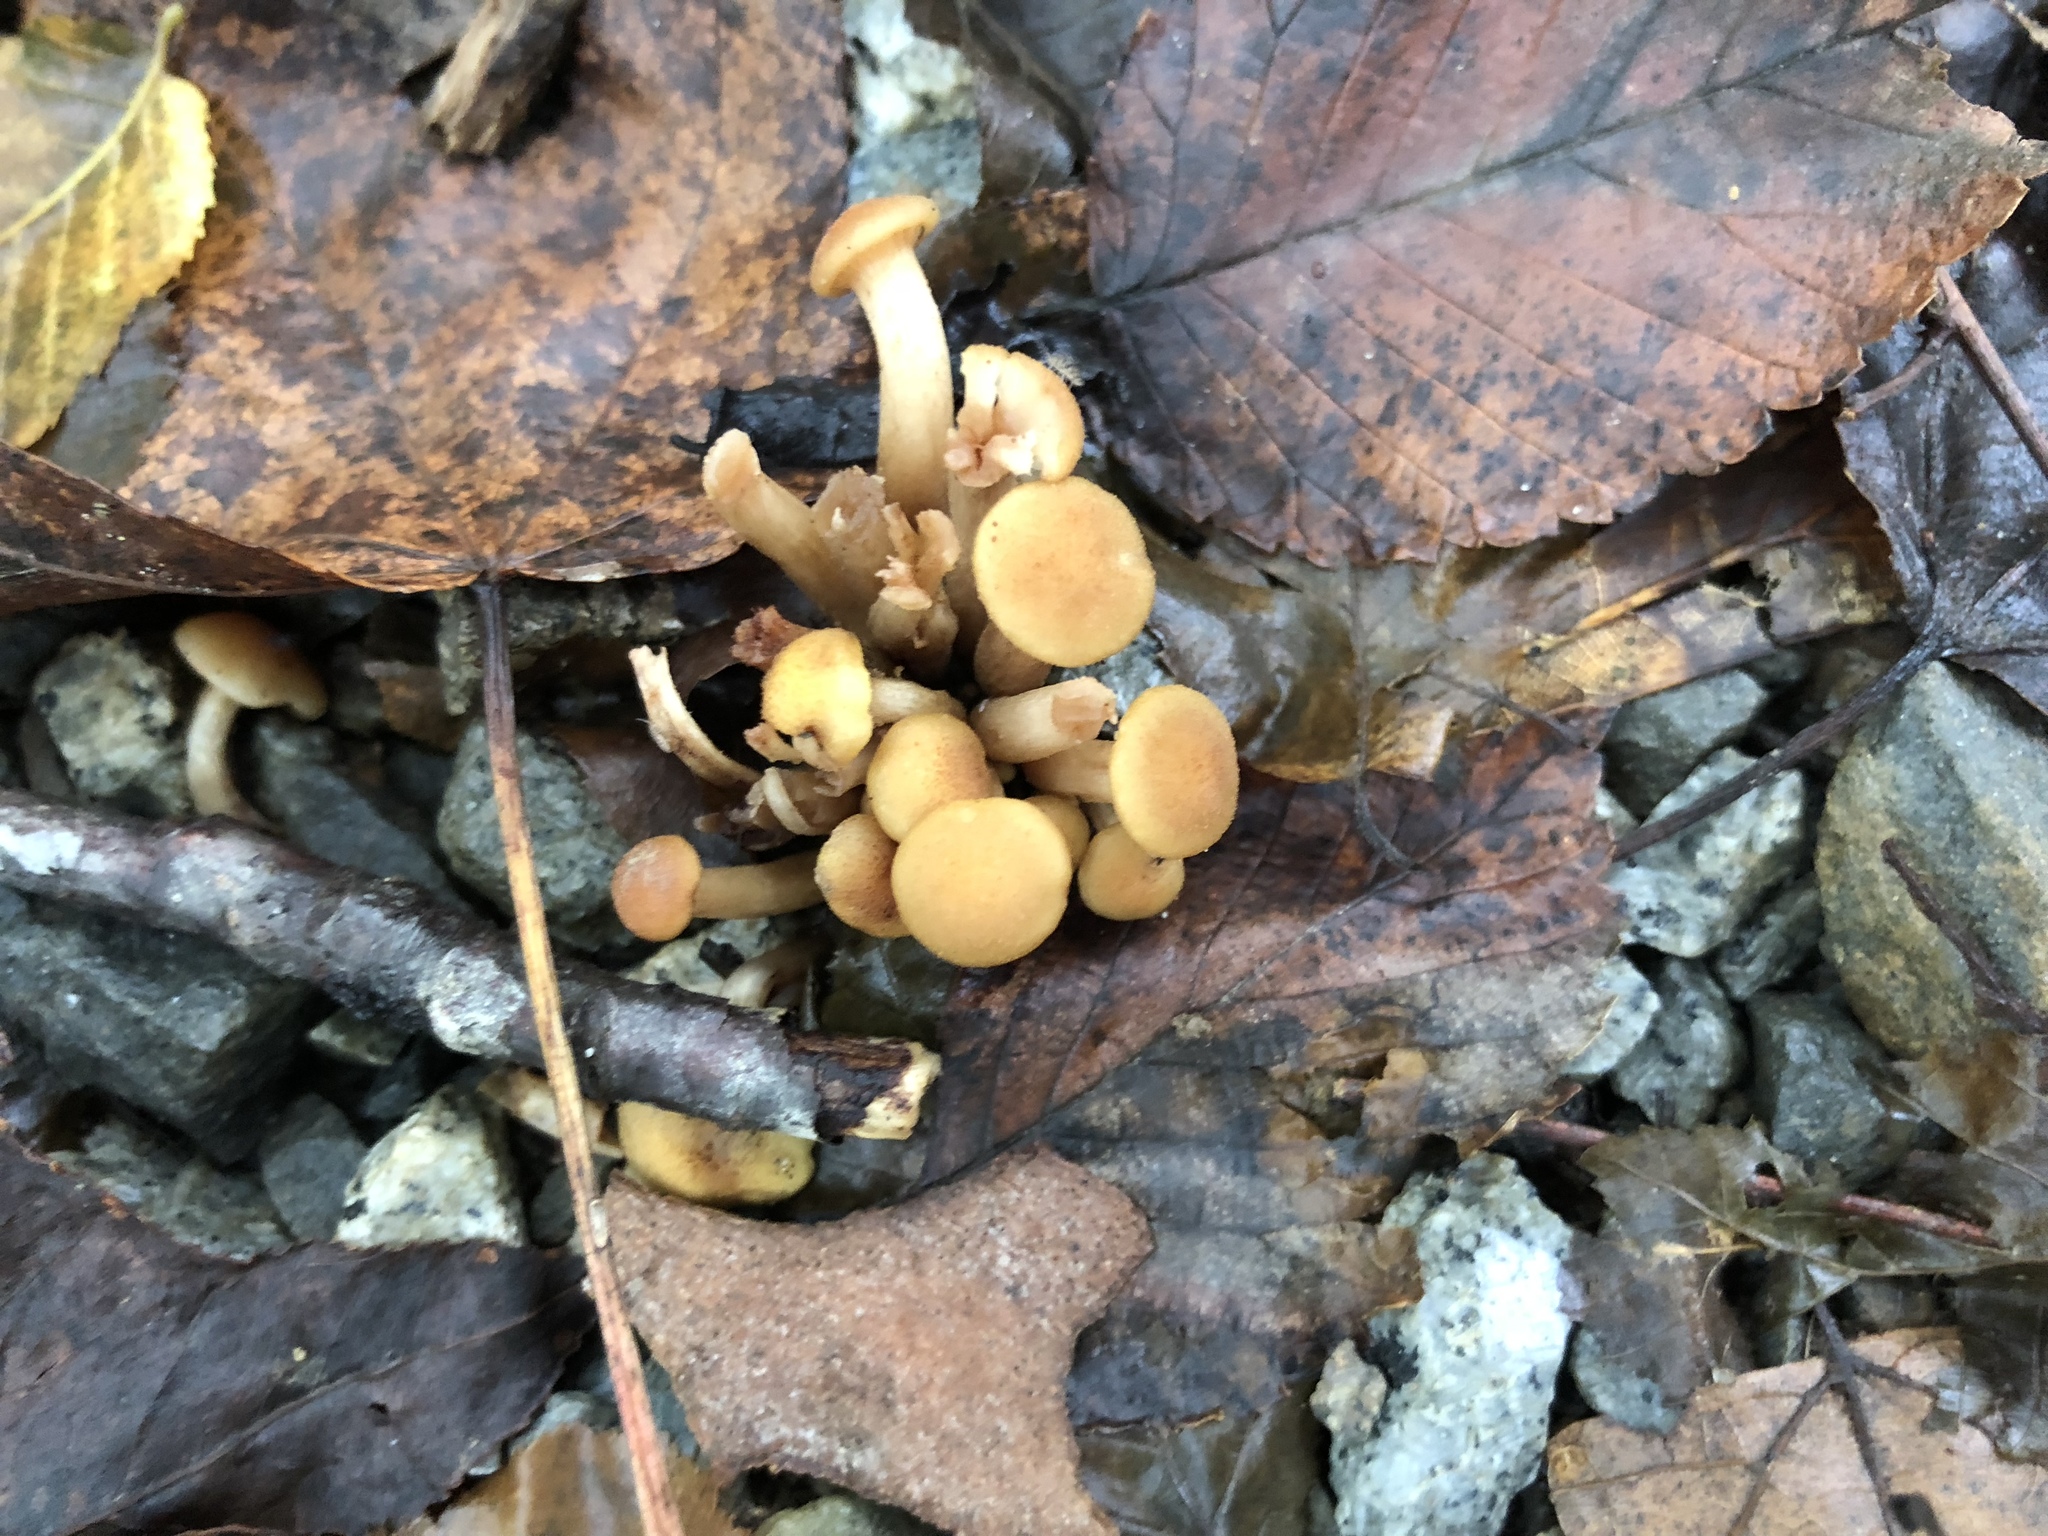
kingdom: Fungi
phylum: Basidiomycota
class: Agaricomycetes
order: Agaricales
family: Physalacriaceae
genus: Desarmillaria
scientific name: Desarmillaria caespitosa
